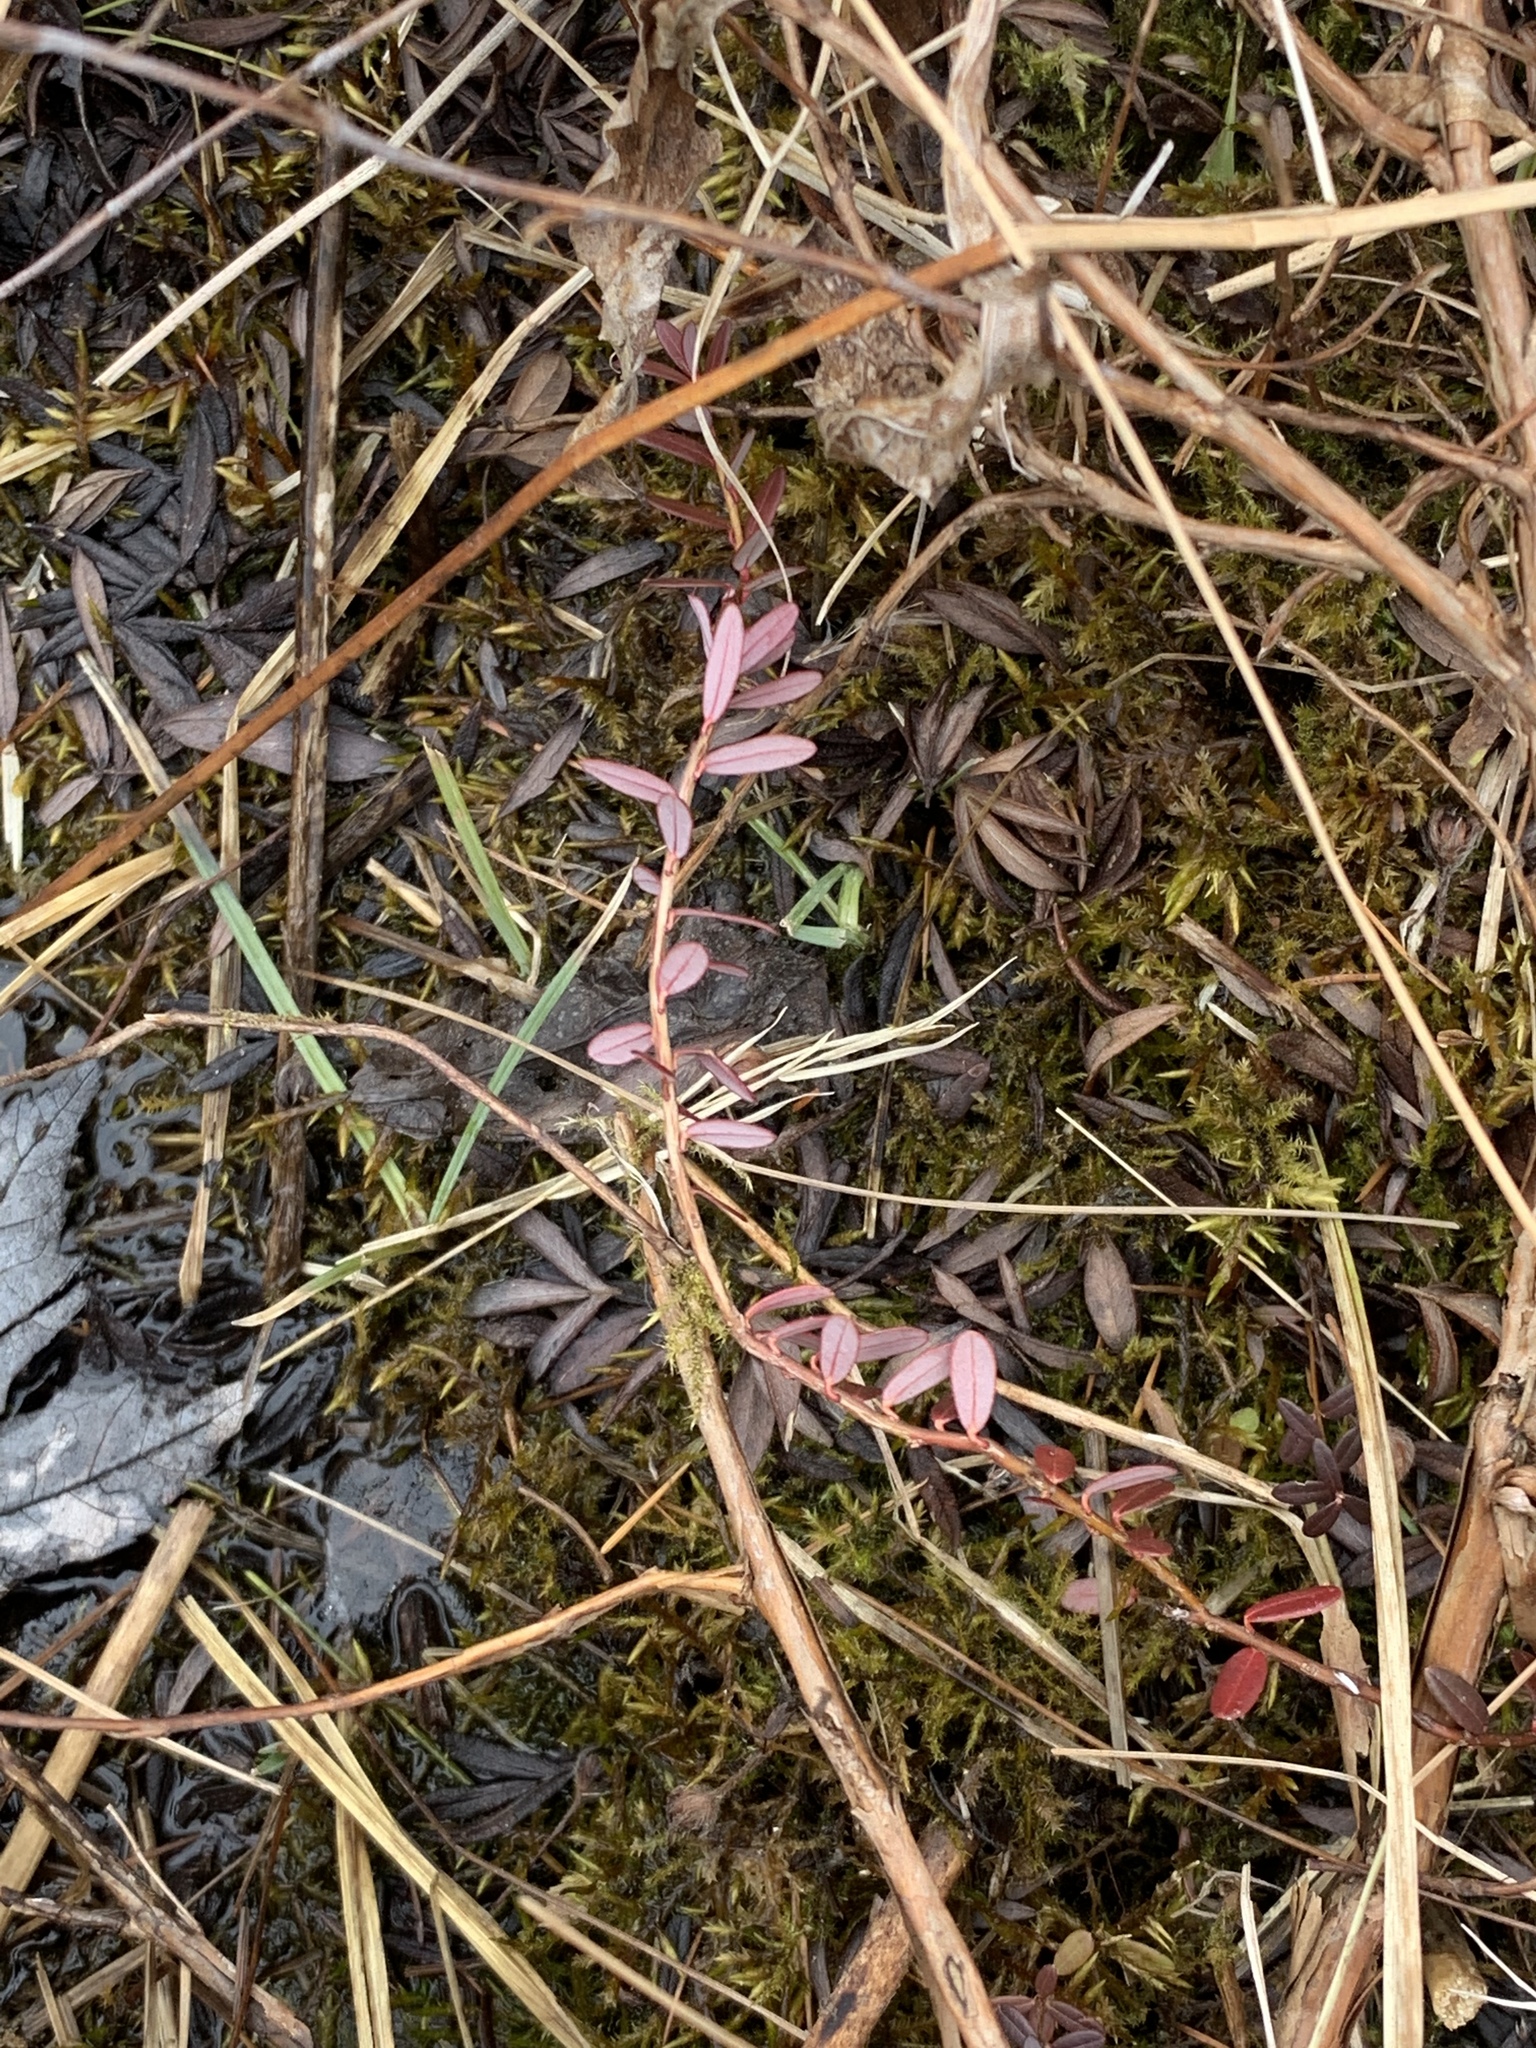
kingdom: Plantae
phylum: Tracheophyta
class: Magnoliopsida
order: Ericales
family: Ericaceae
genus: Vaccinium
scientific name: Vaccinium macrocarpon
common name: American cranberry
